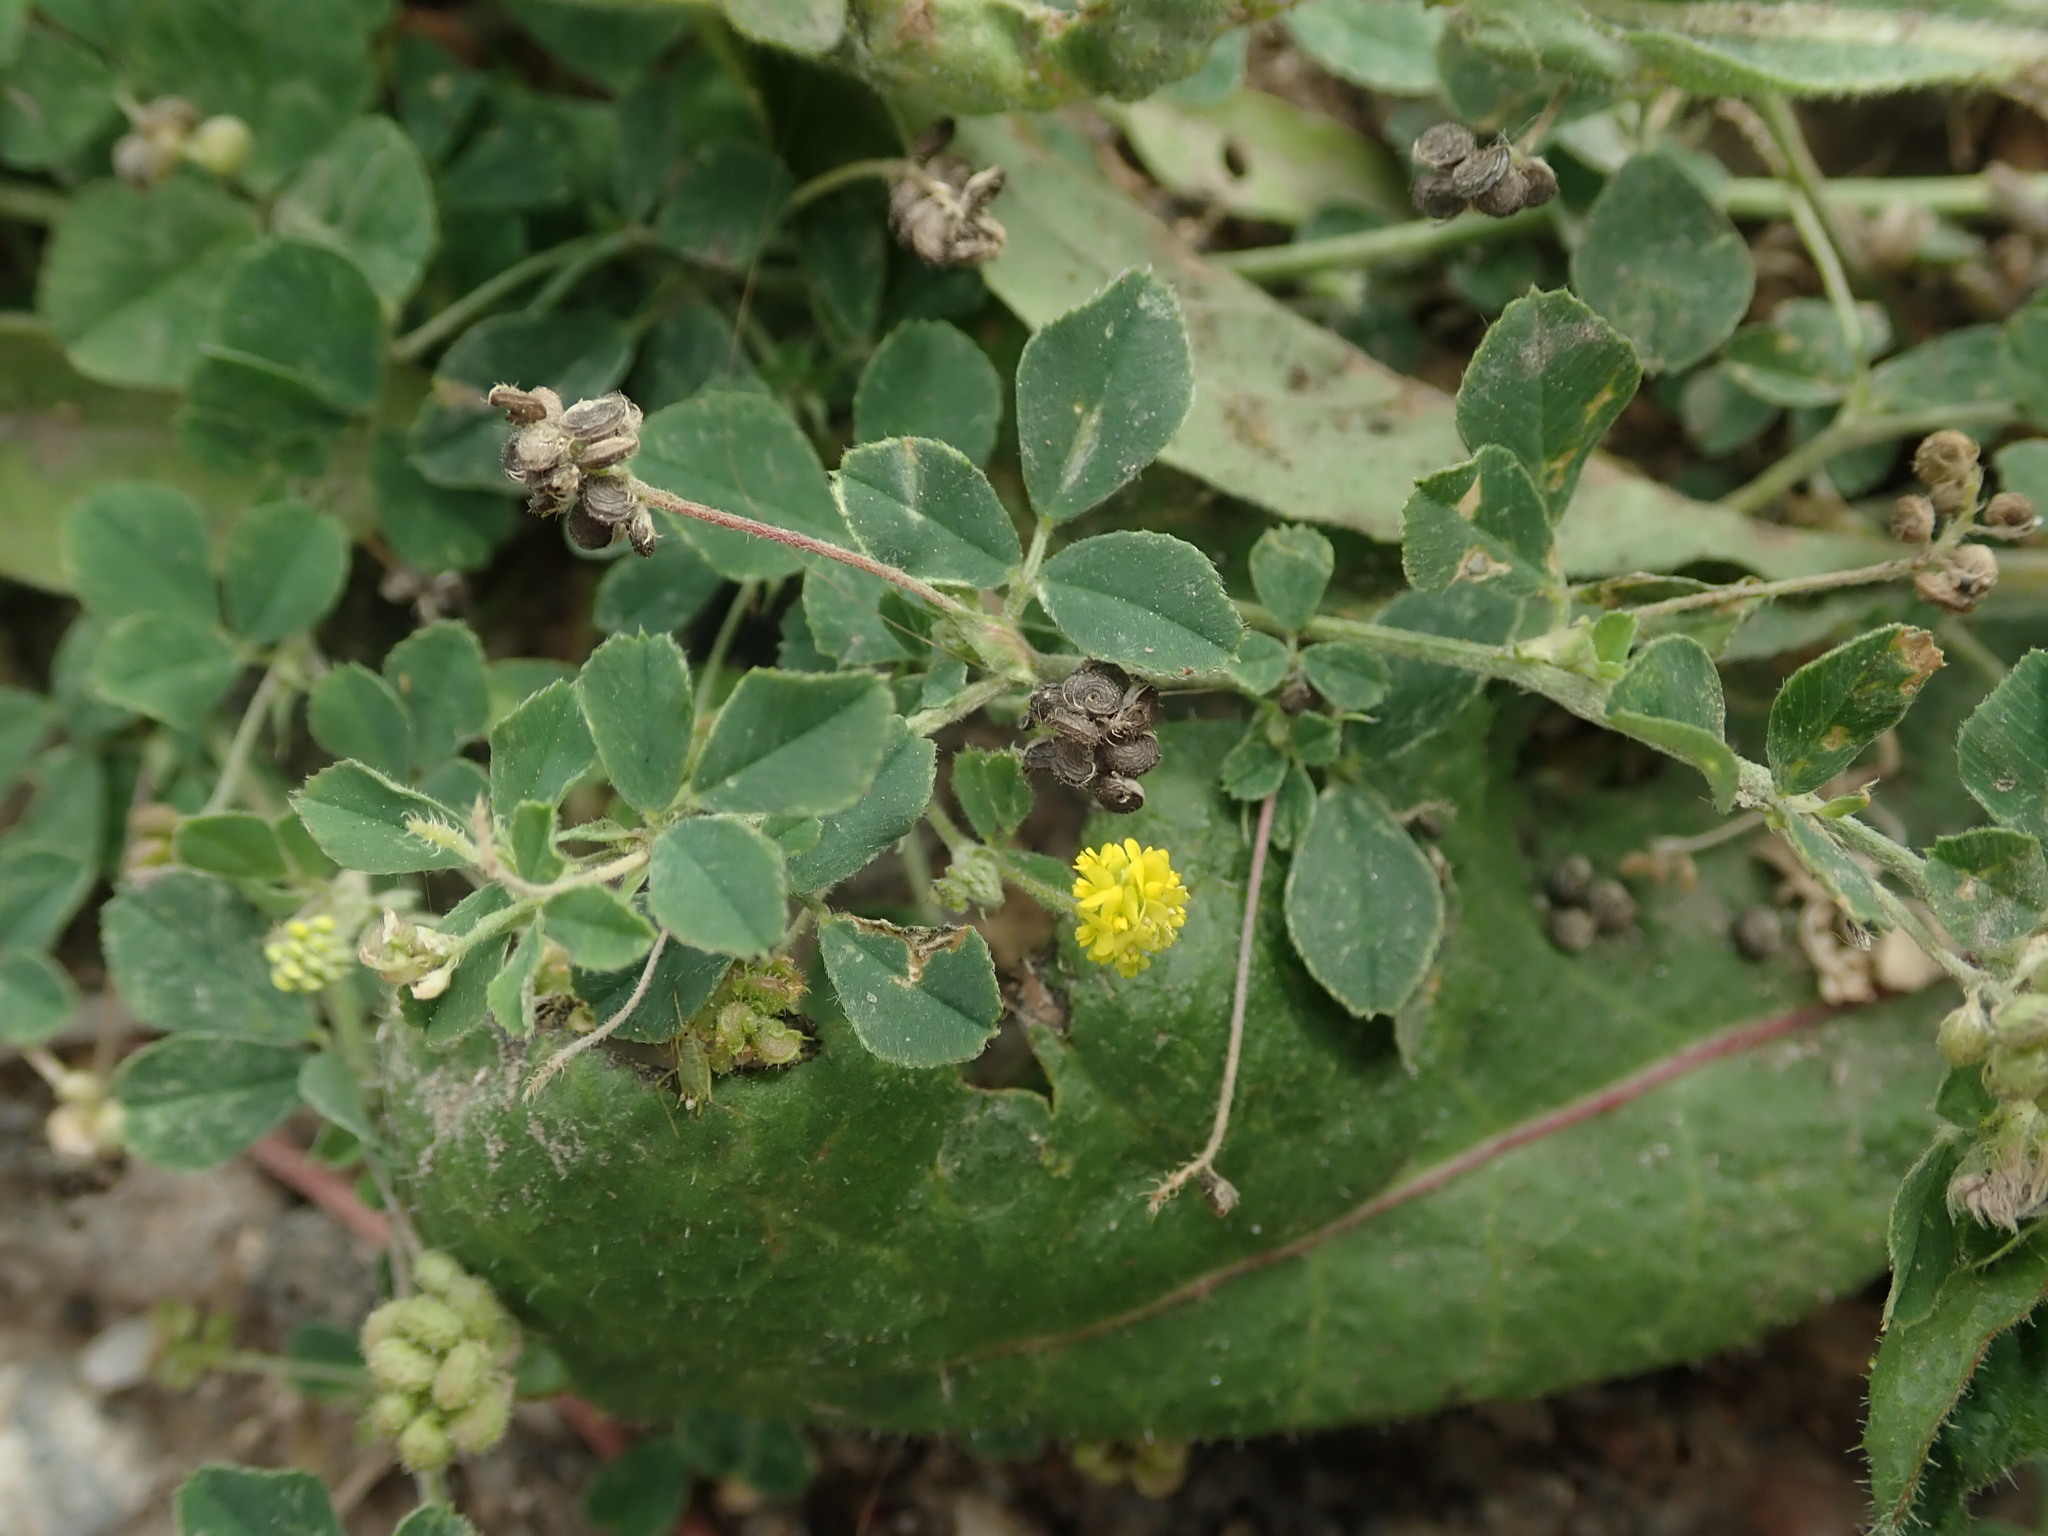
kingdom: Plantae
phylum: Tracheophyta
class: Magnoliopsida
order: Fabales
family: Fabaceae
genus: Medicago
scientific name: Medicago lupulina
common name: Black medick
